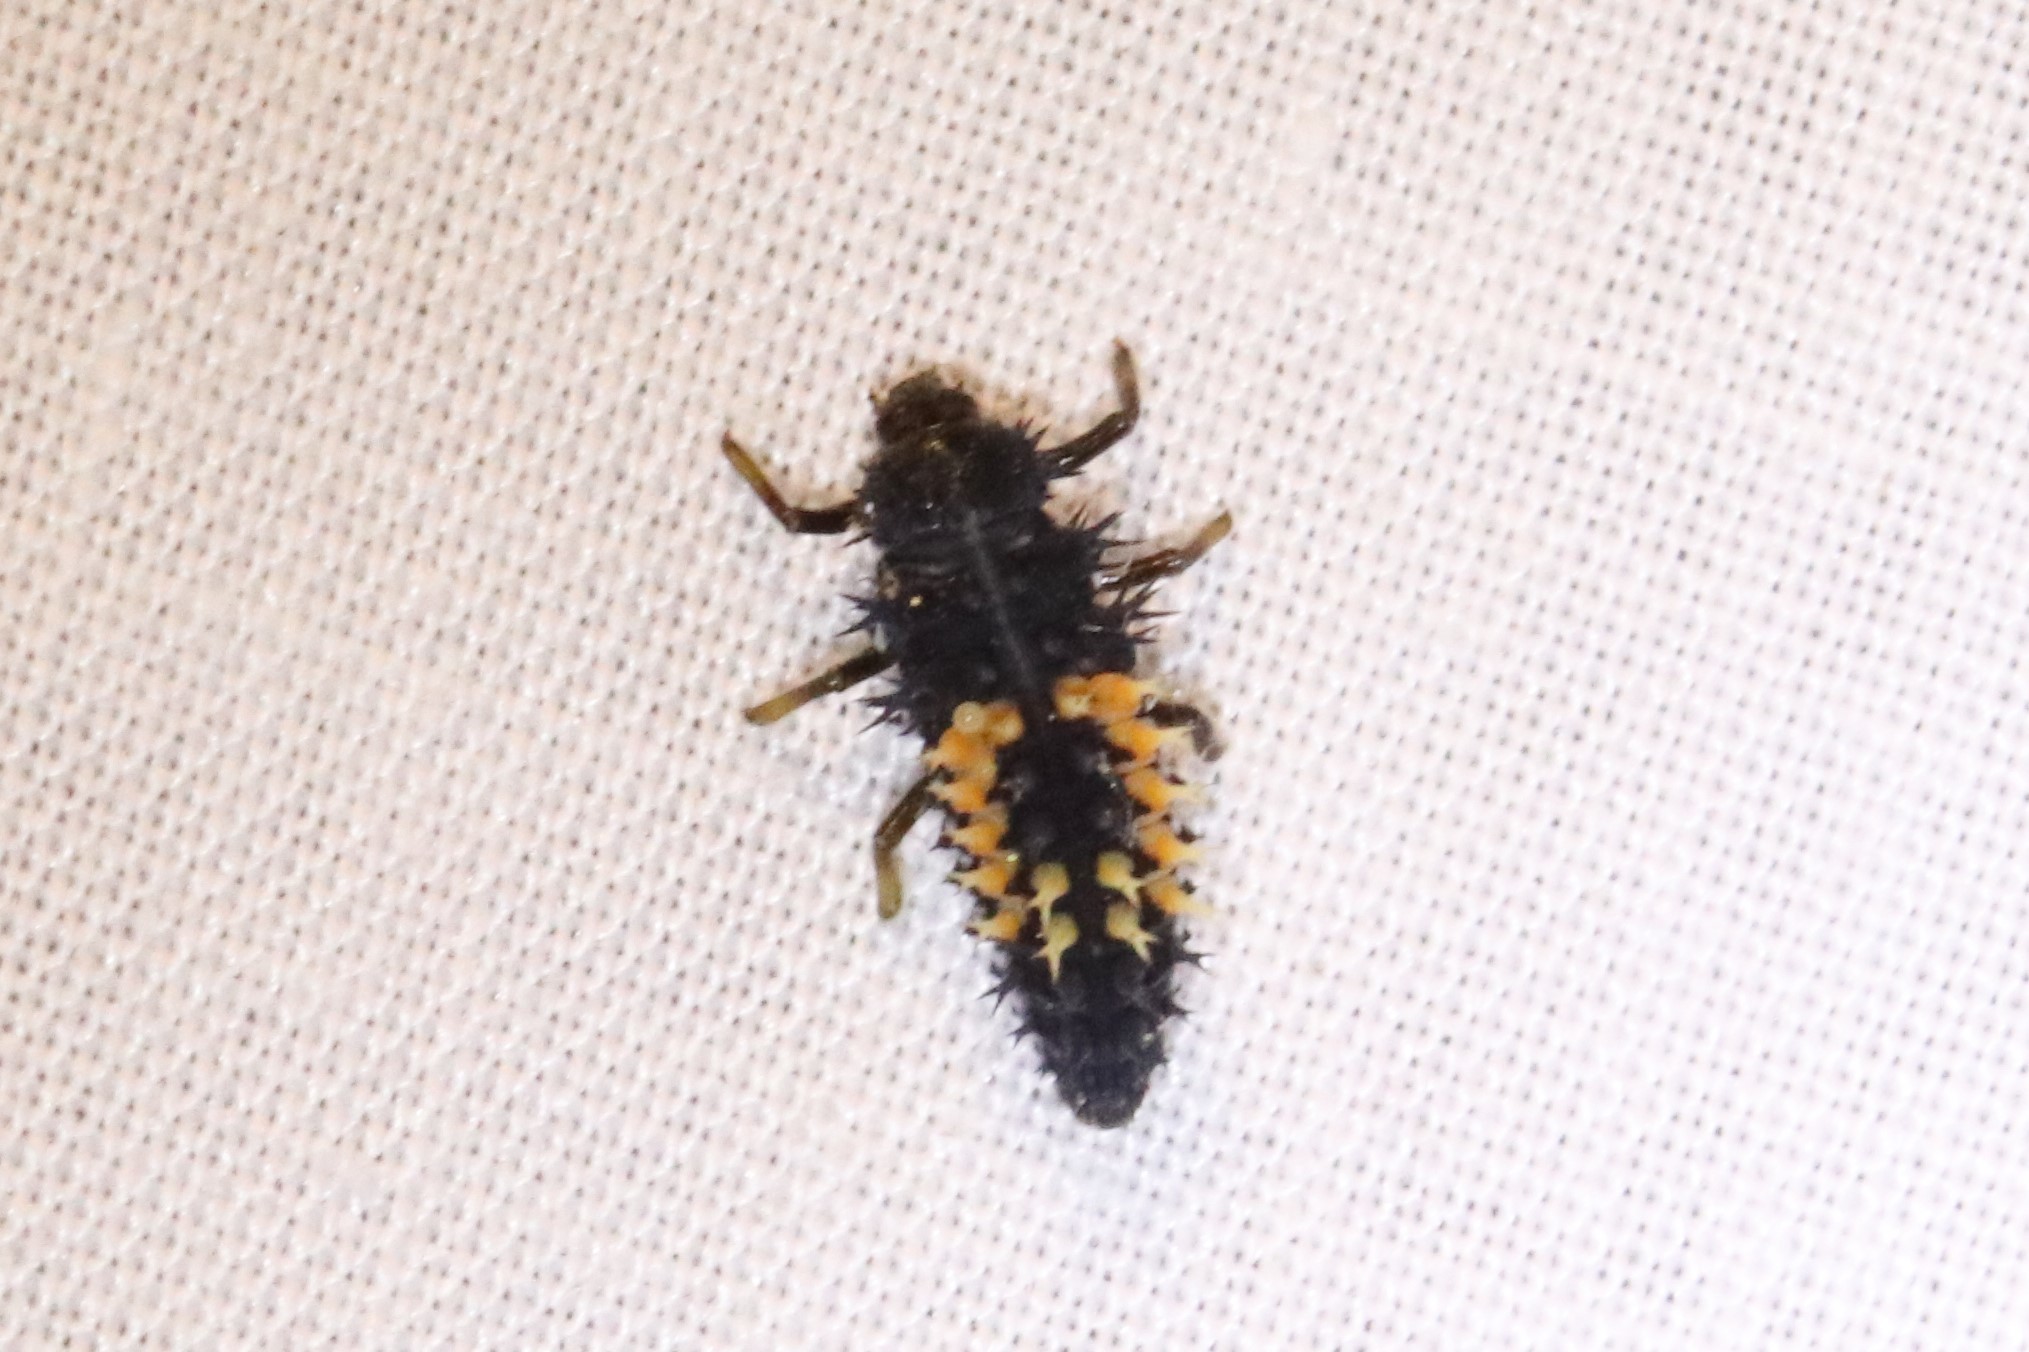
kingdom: Animalia
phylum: Arthropoda
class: Insecta
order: Coleoptera
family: Coccinellidae
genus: Harmonia
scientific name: Harmonia axyridis
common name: Harlequin ladybird
